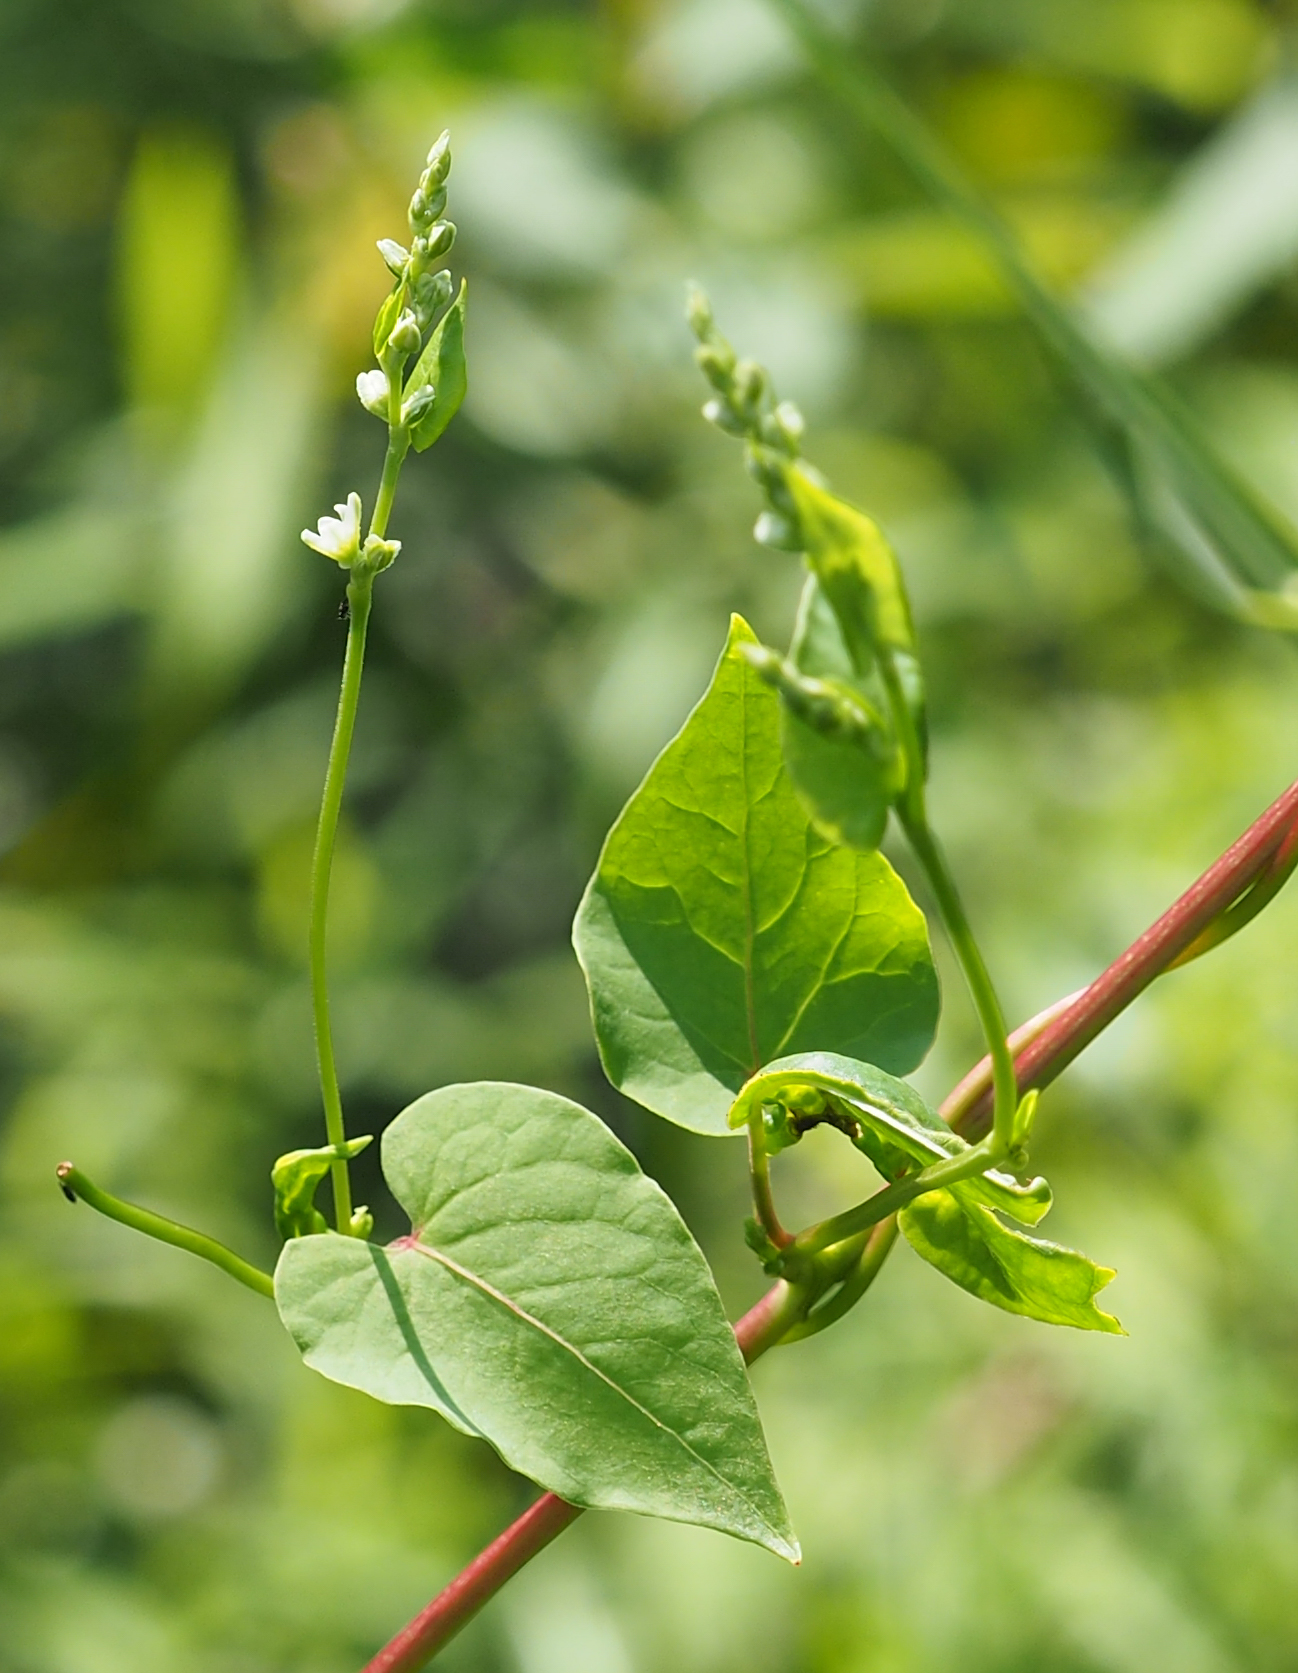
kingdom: Plantae
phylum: Tracheophyta
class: Magnoliopsida
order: Caryophyllales
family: Polygonaceae
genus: Fallopia
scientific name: Fallopia scandens
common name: Climbing false buckwheat
